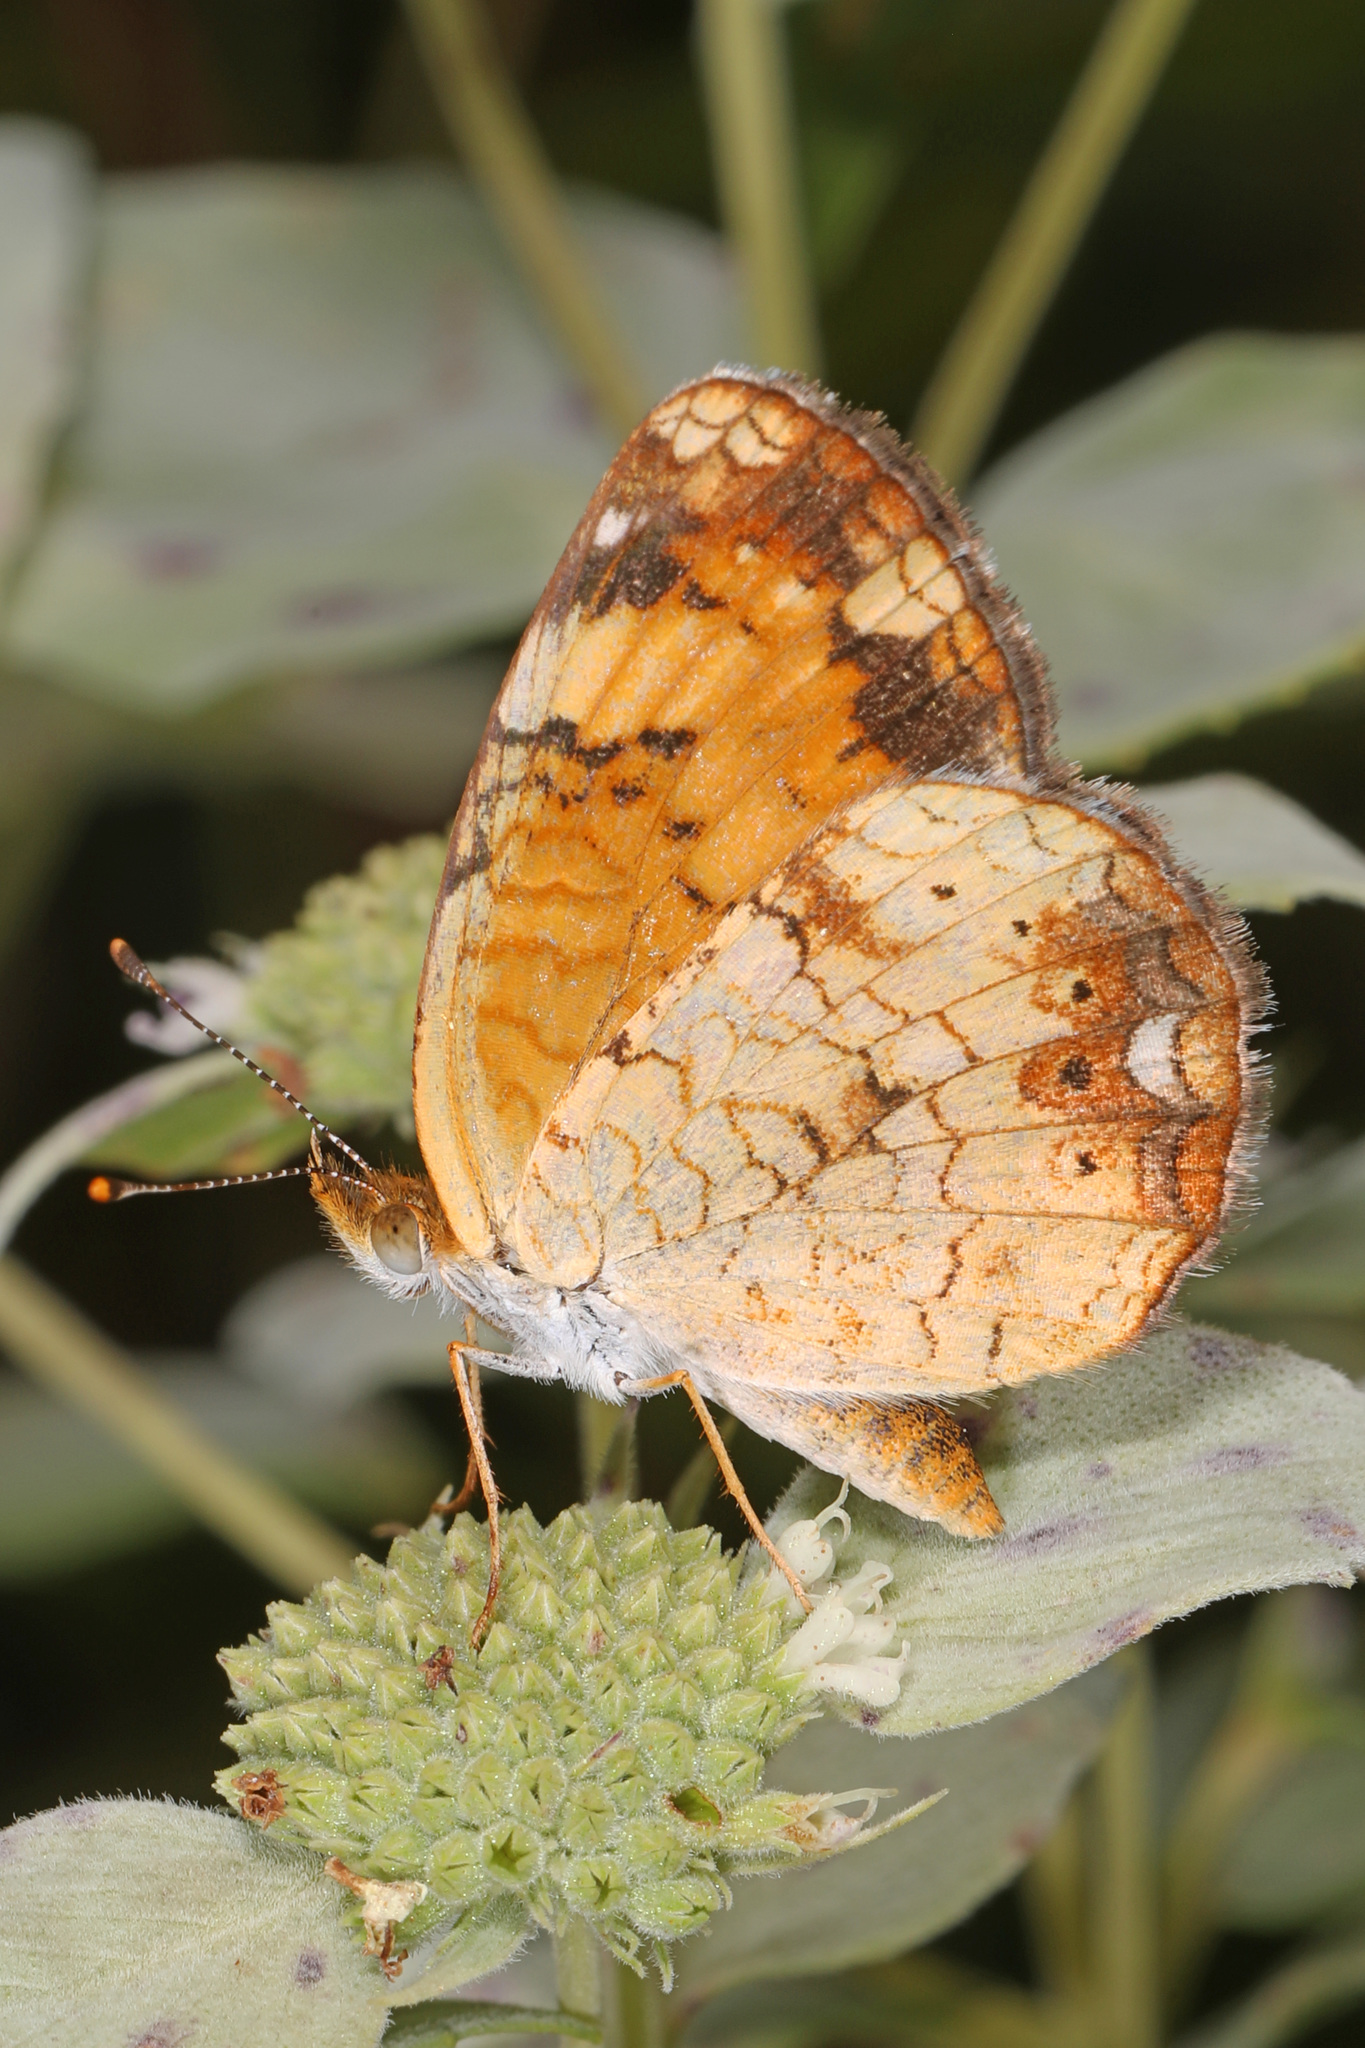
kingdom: Animalia
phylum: Arthropoda
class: Insecta
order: Lepidoptera
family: Nymphalidae
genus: Phyciodes
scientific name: Phyciodes tharos
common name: Pearl crescent
